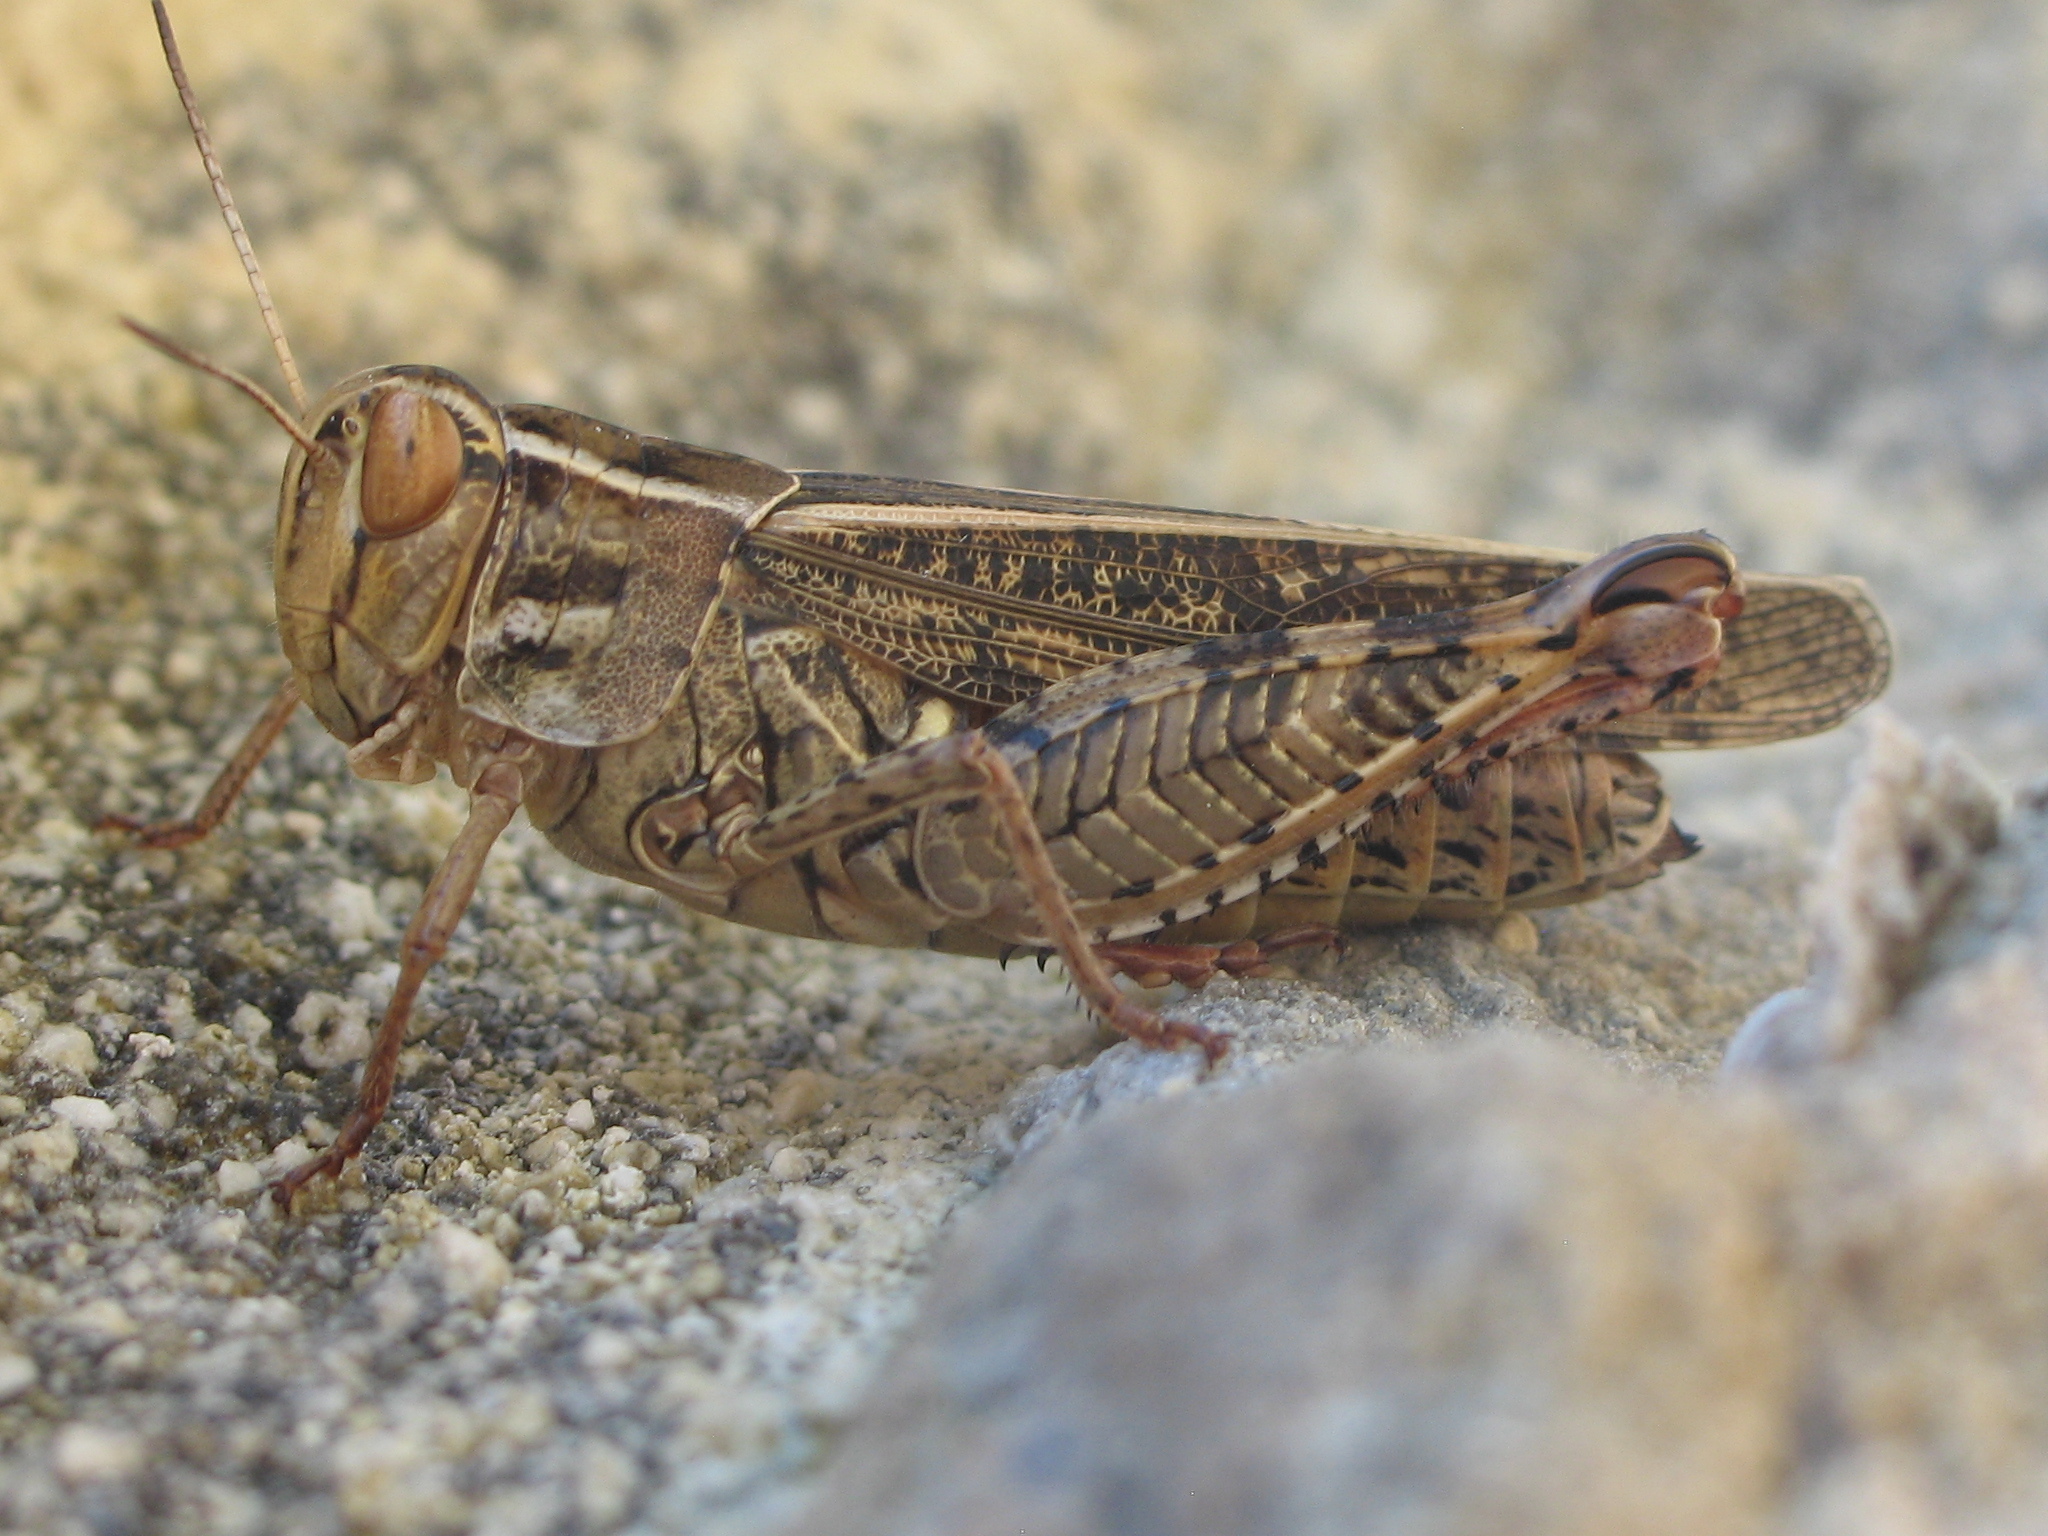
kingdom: Animalia
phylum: Arthropoda
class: Insecta
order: Orthoptera
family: Acrididae
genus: Calliptamus
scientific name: Calliptamus italicus
